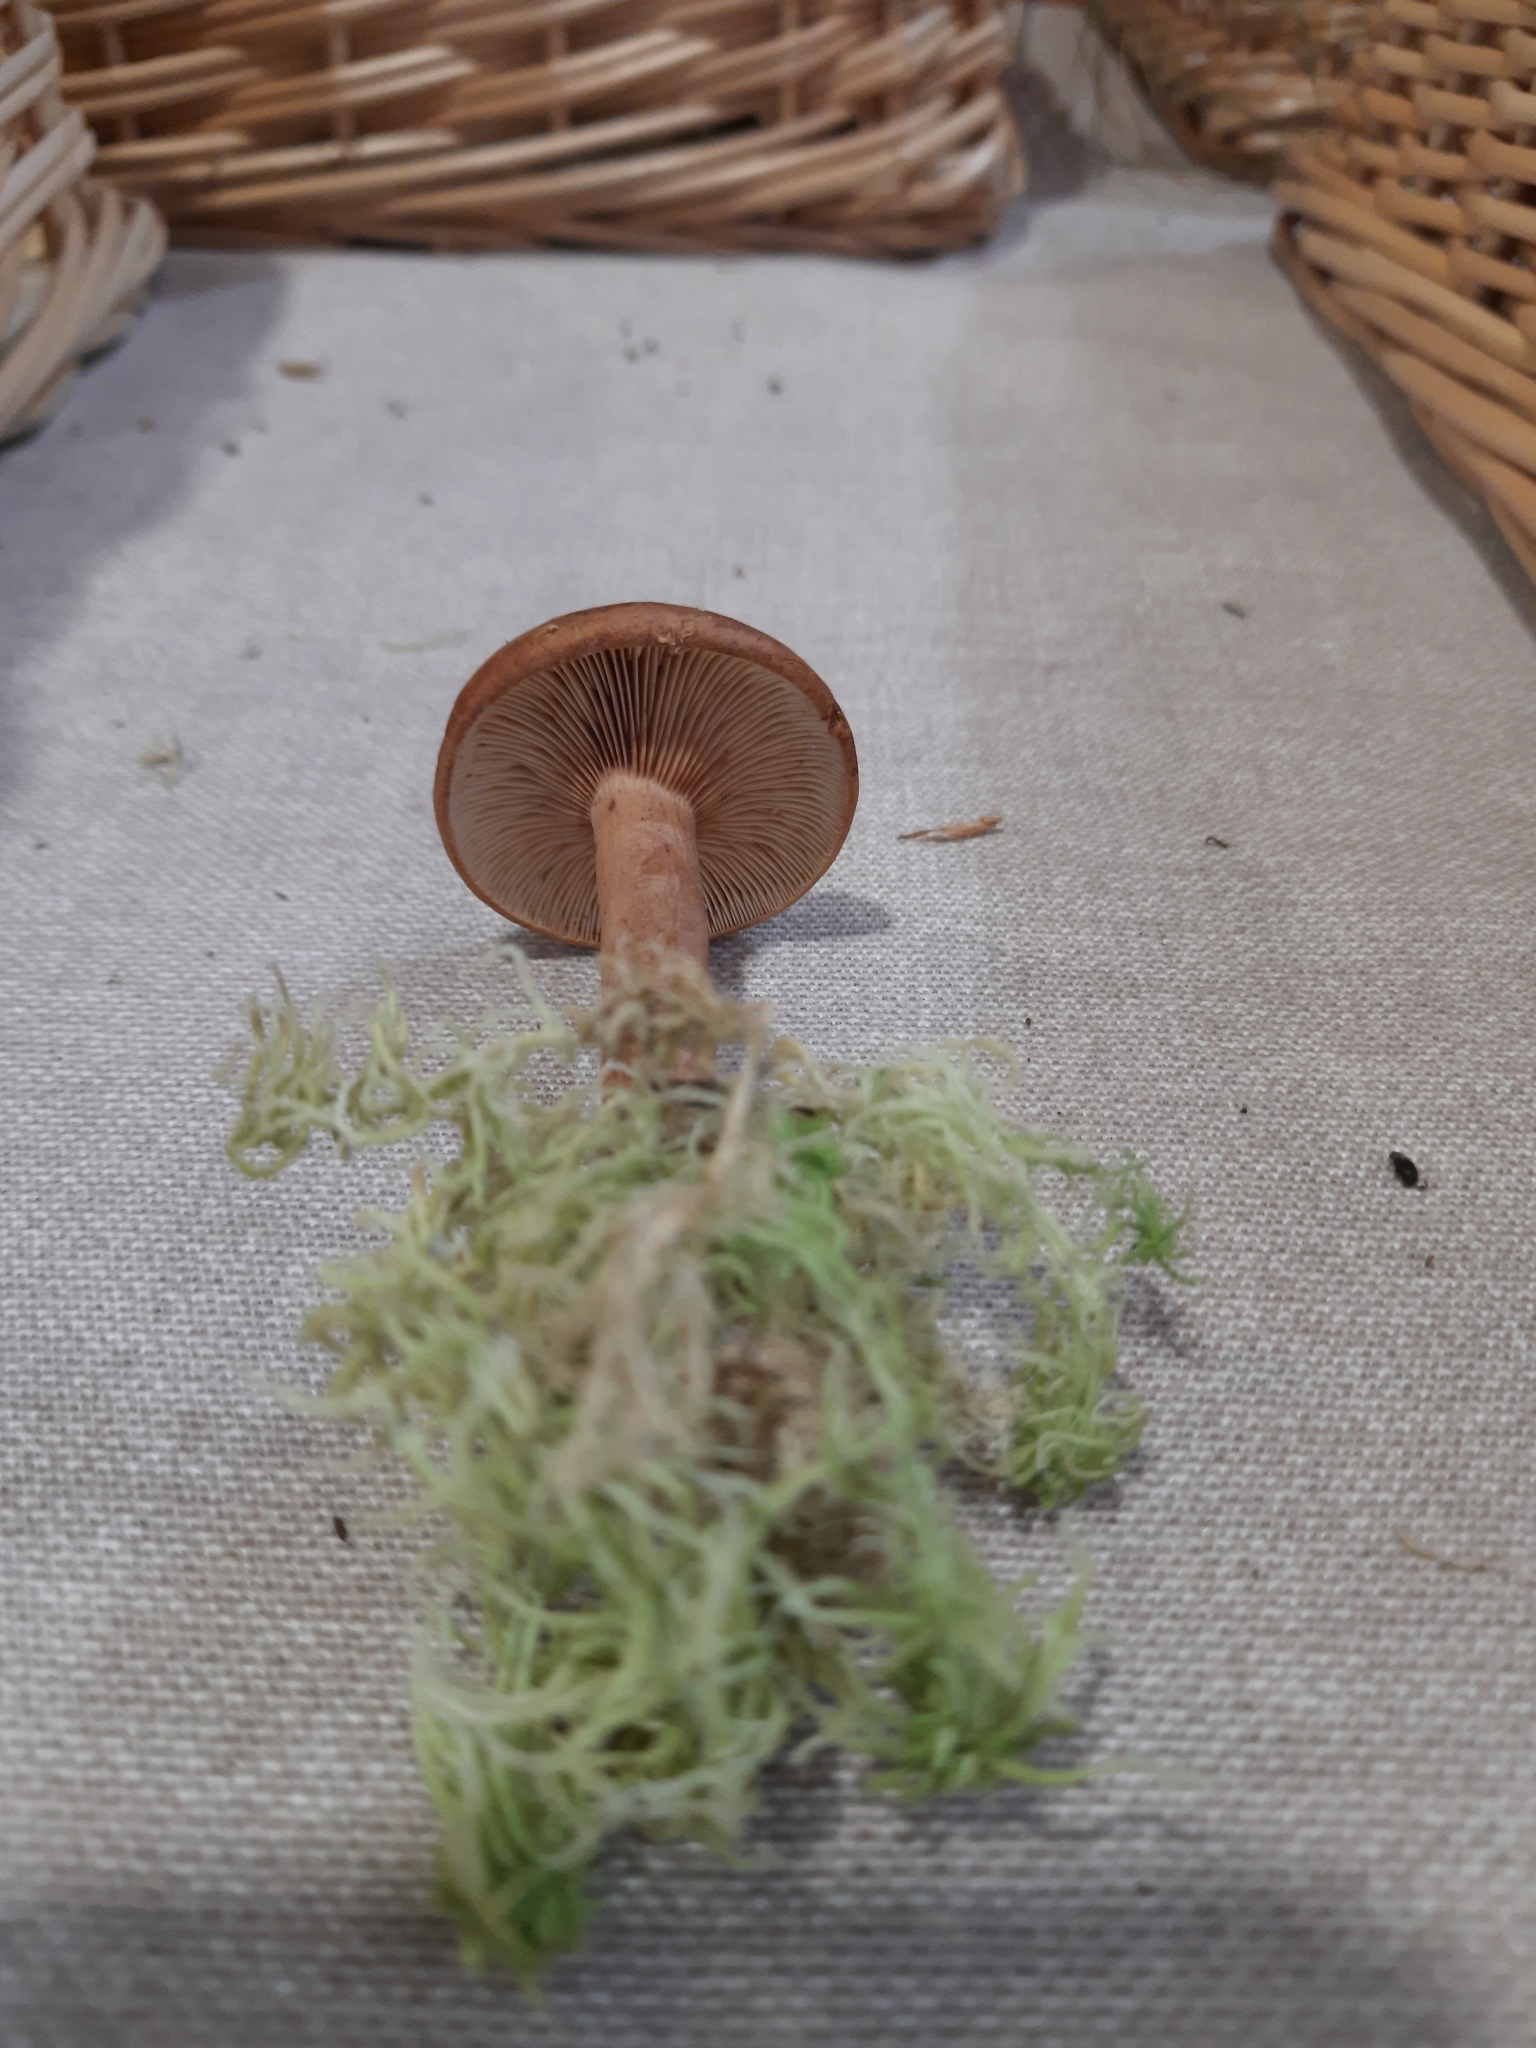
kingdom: Fungi
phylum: Basidiomycota
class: Agaricomycetes
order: Russulales
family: Russulaceae
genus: Lactarius
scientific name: Lactarius rufus
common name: Rufous milk-cap
